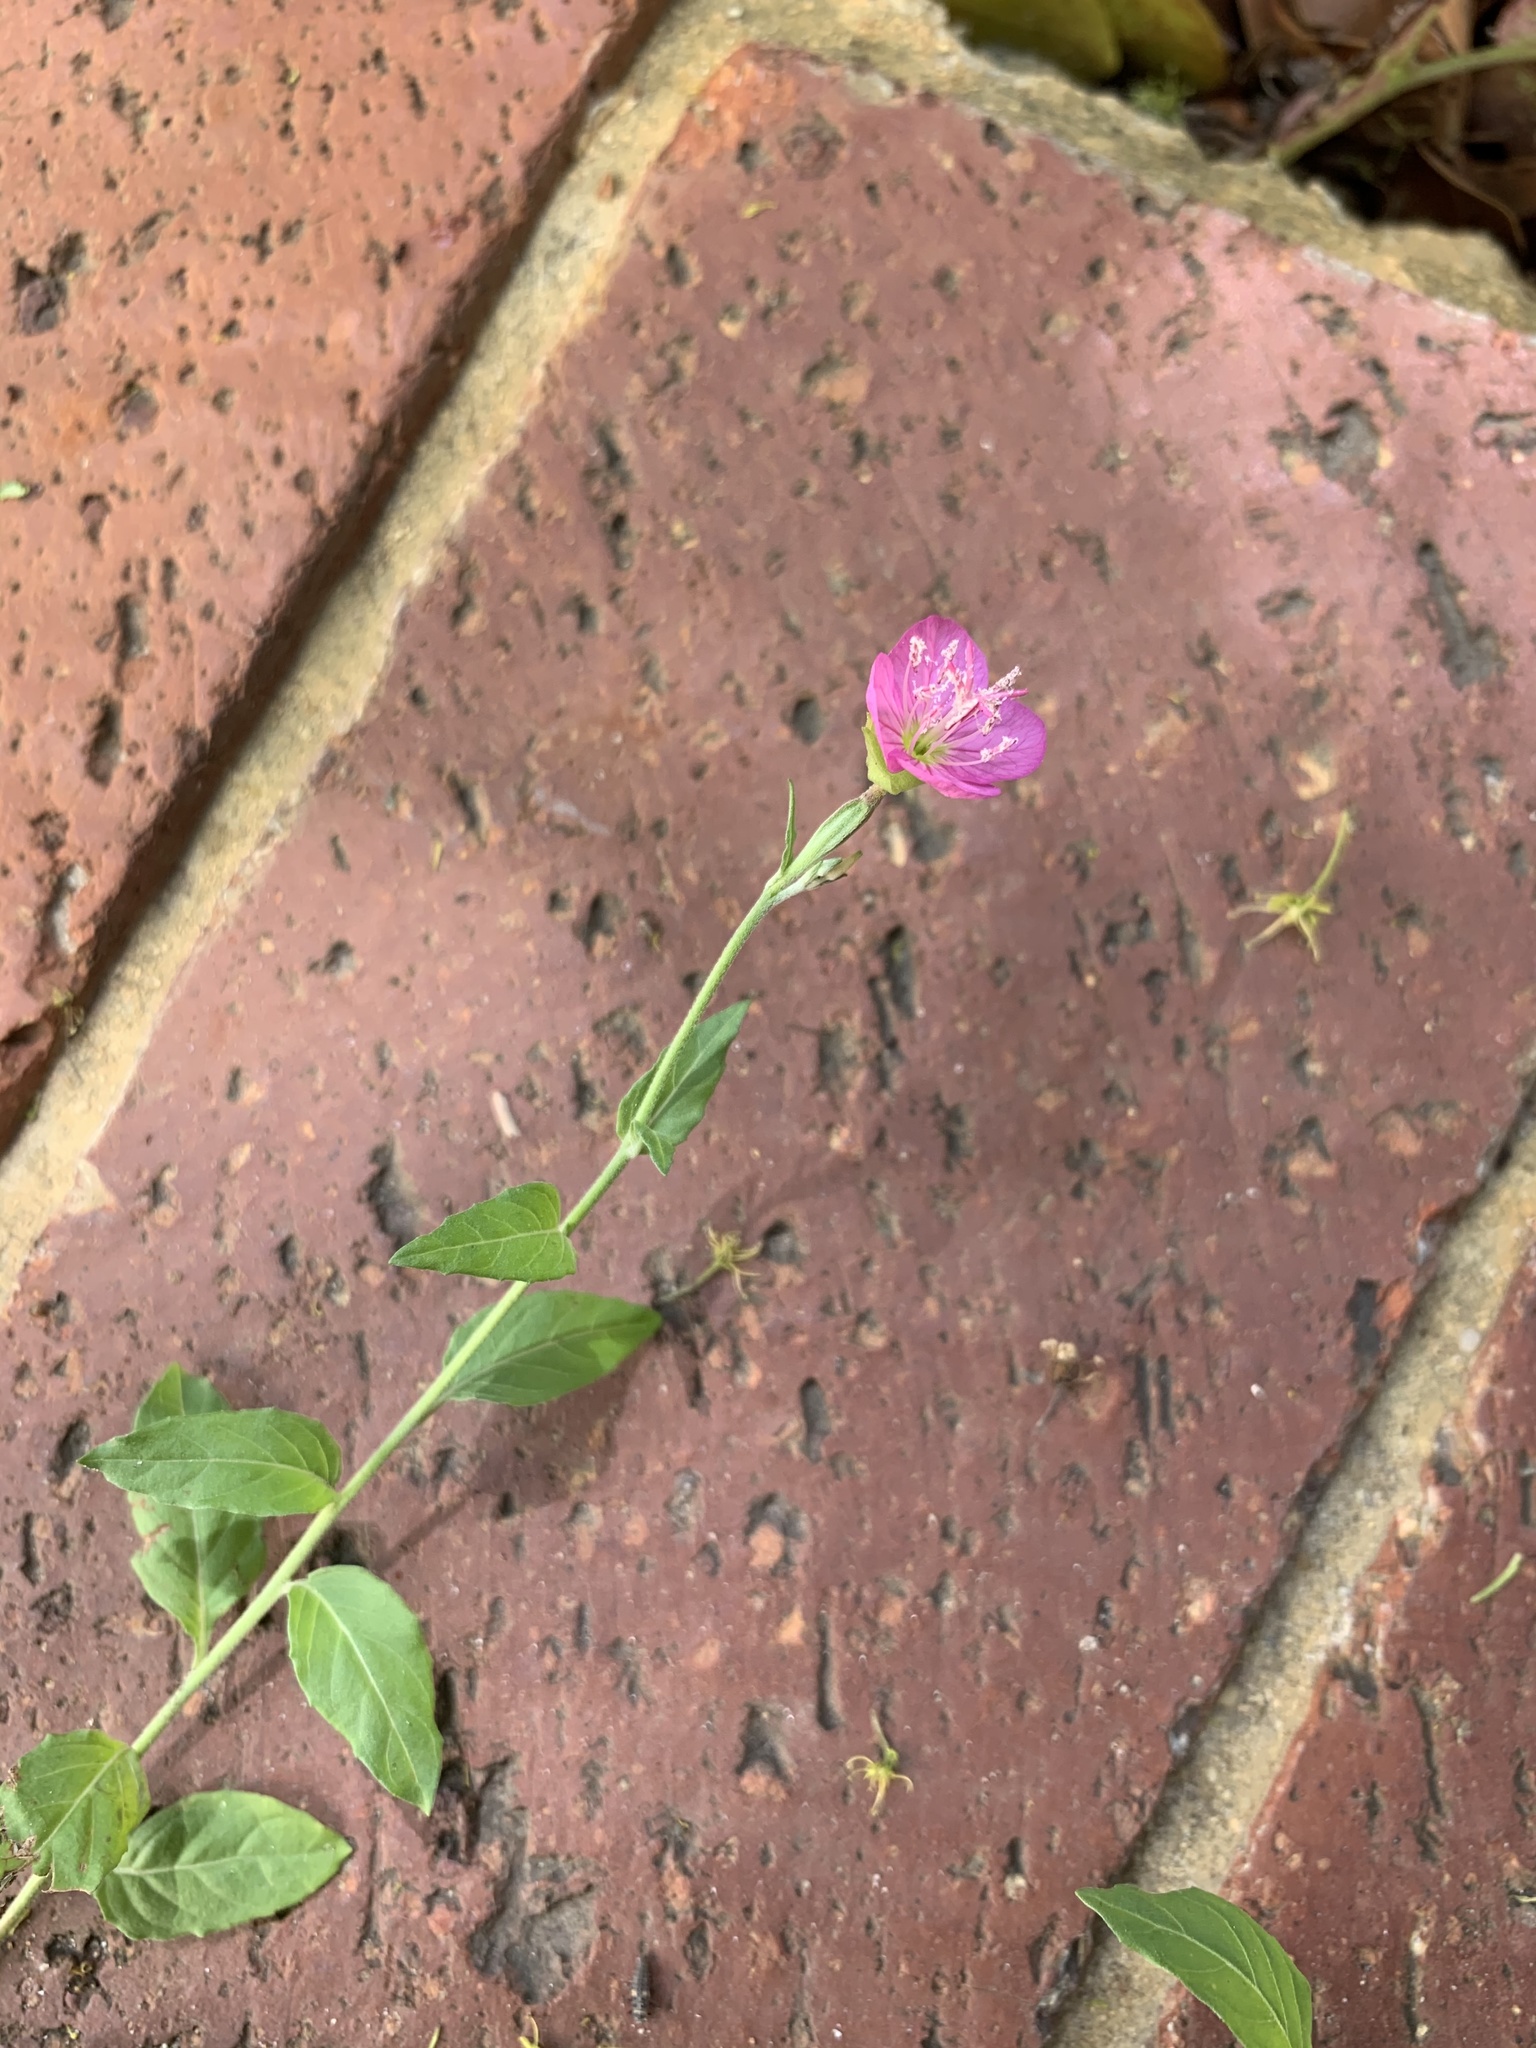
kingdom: Plantae
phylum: Tracheophyta
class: Magnoliopsida
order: Myrtales
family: Onagraceae
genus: Oenothera
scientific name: Oenothera rosea
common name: Rosy evening-primrose
